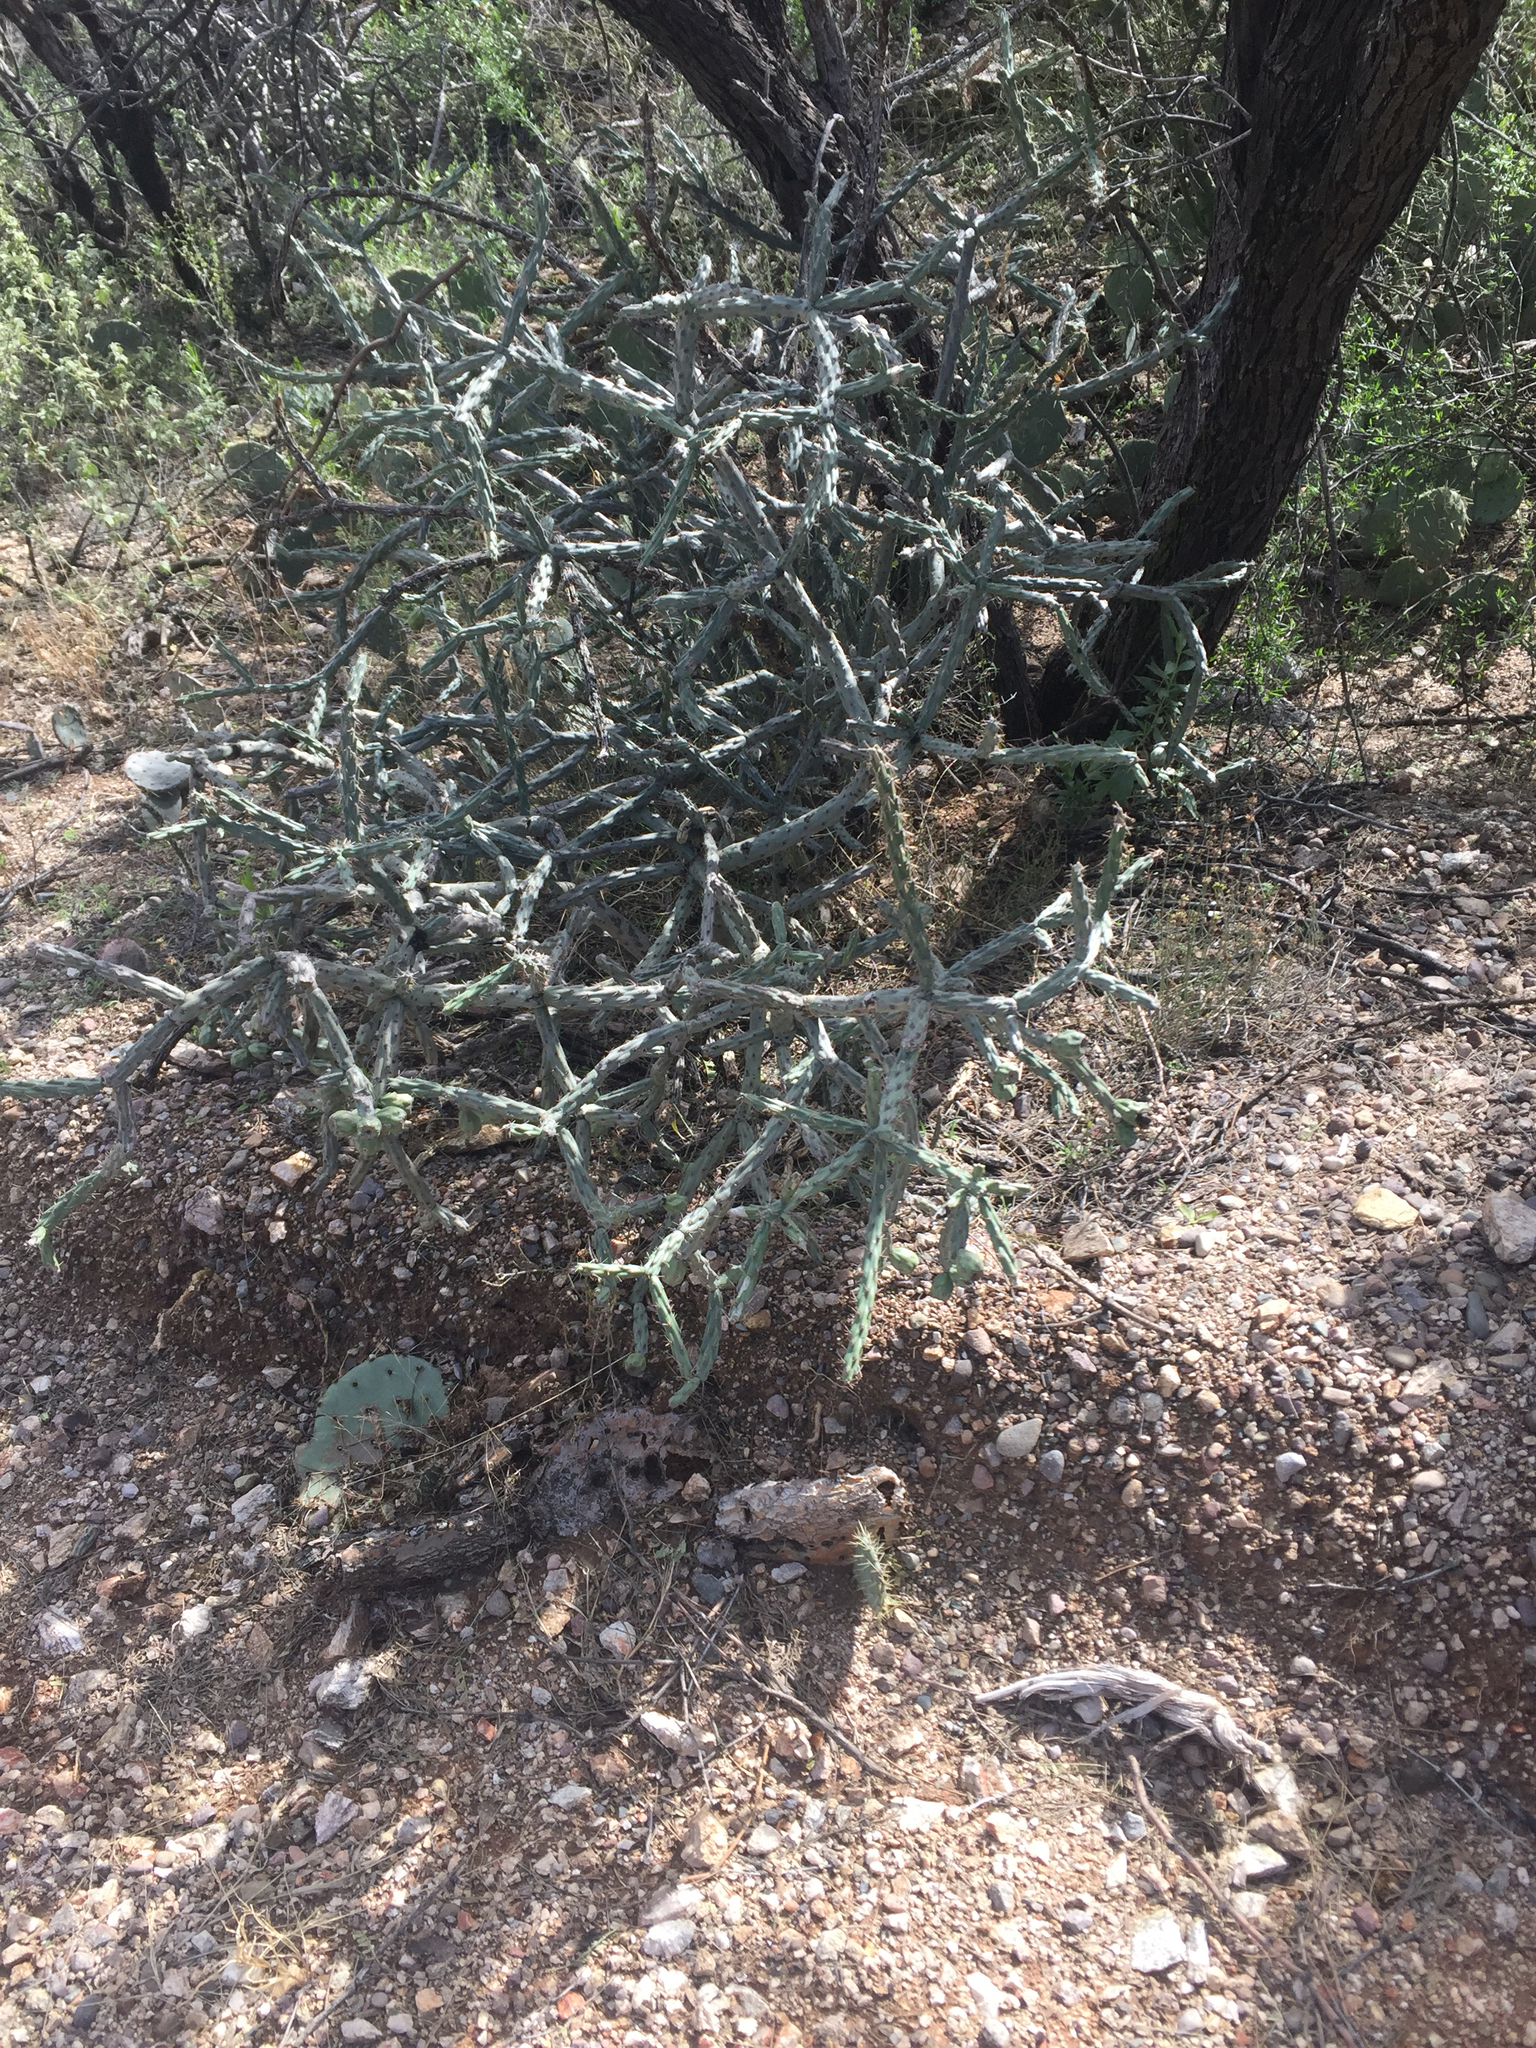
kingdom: Plantae
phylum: Tracheophyta
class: Magnoliopsida
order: Caryophyllales
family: Cactaceae
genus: Cylindropuntia
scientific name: Cylindropuntia thurberi
